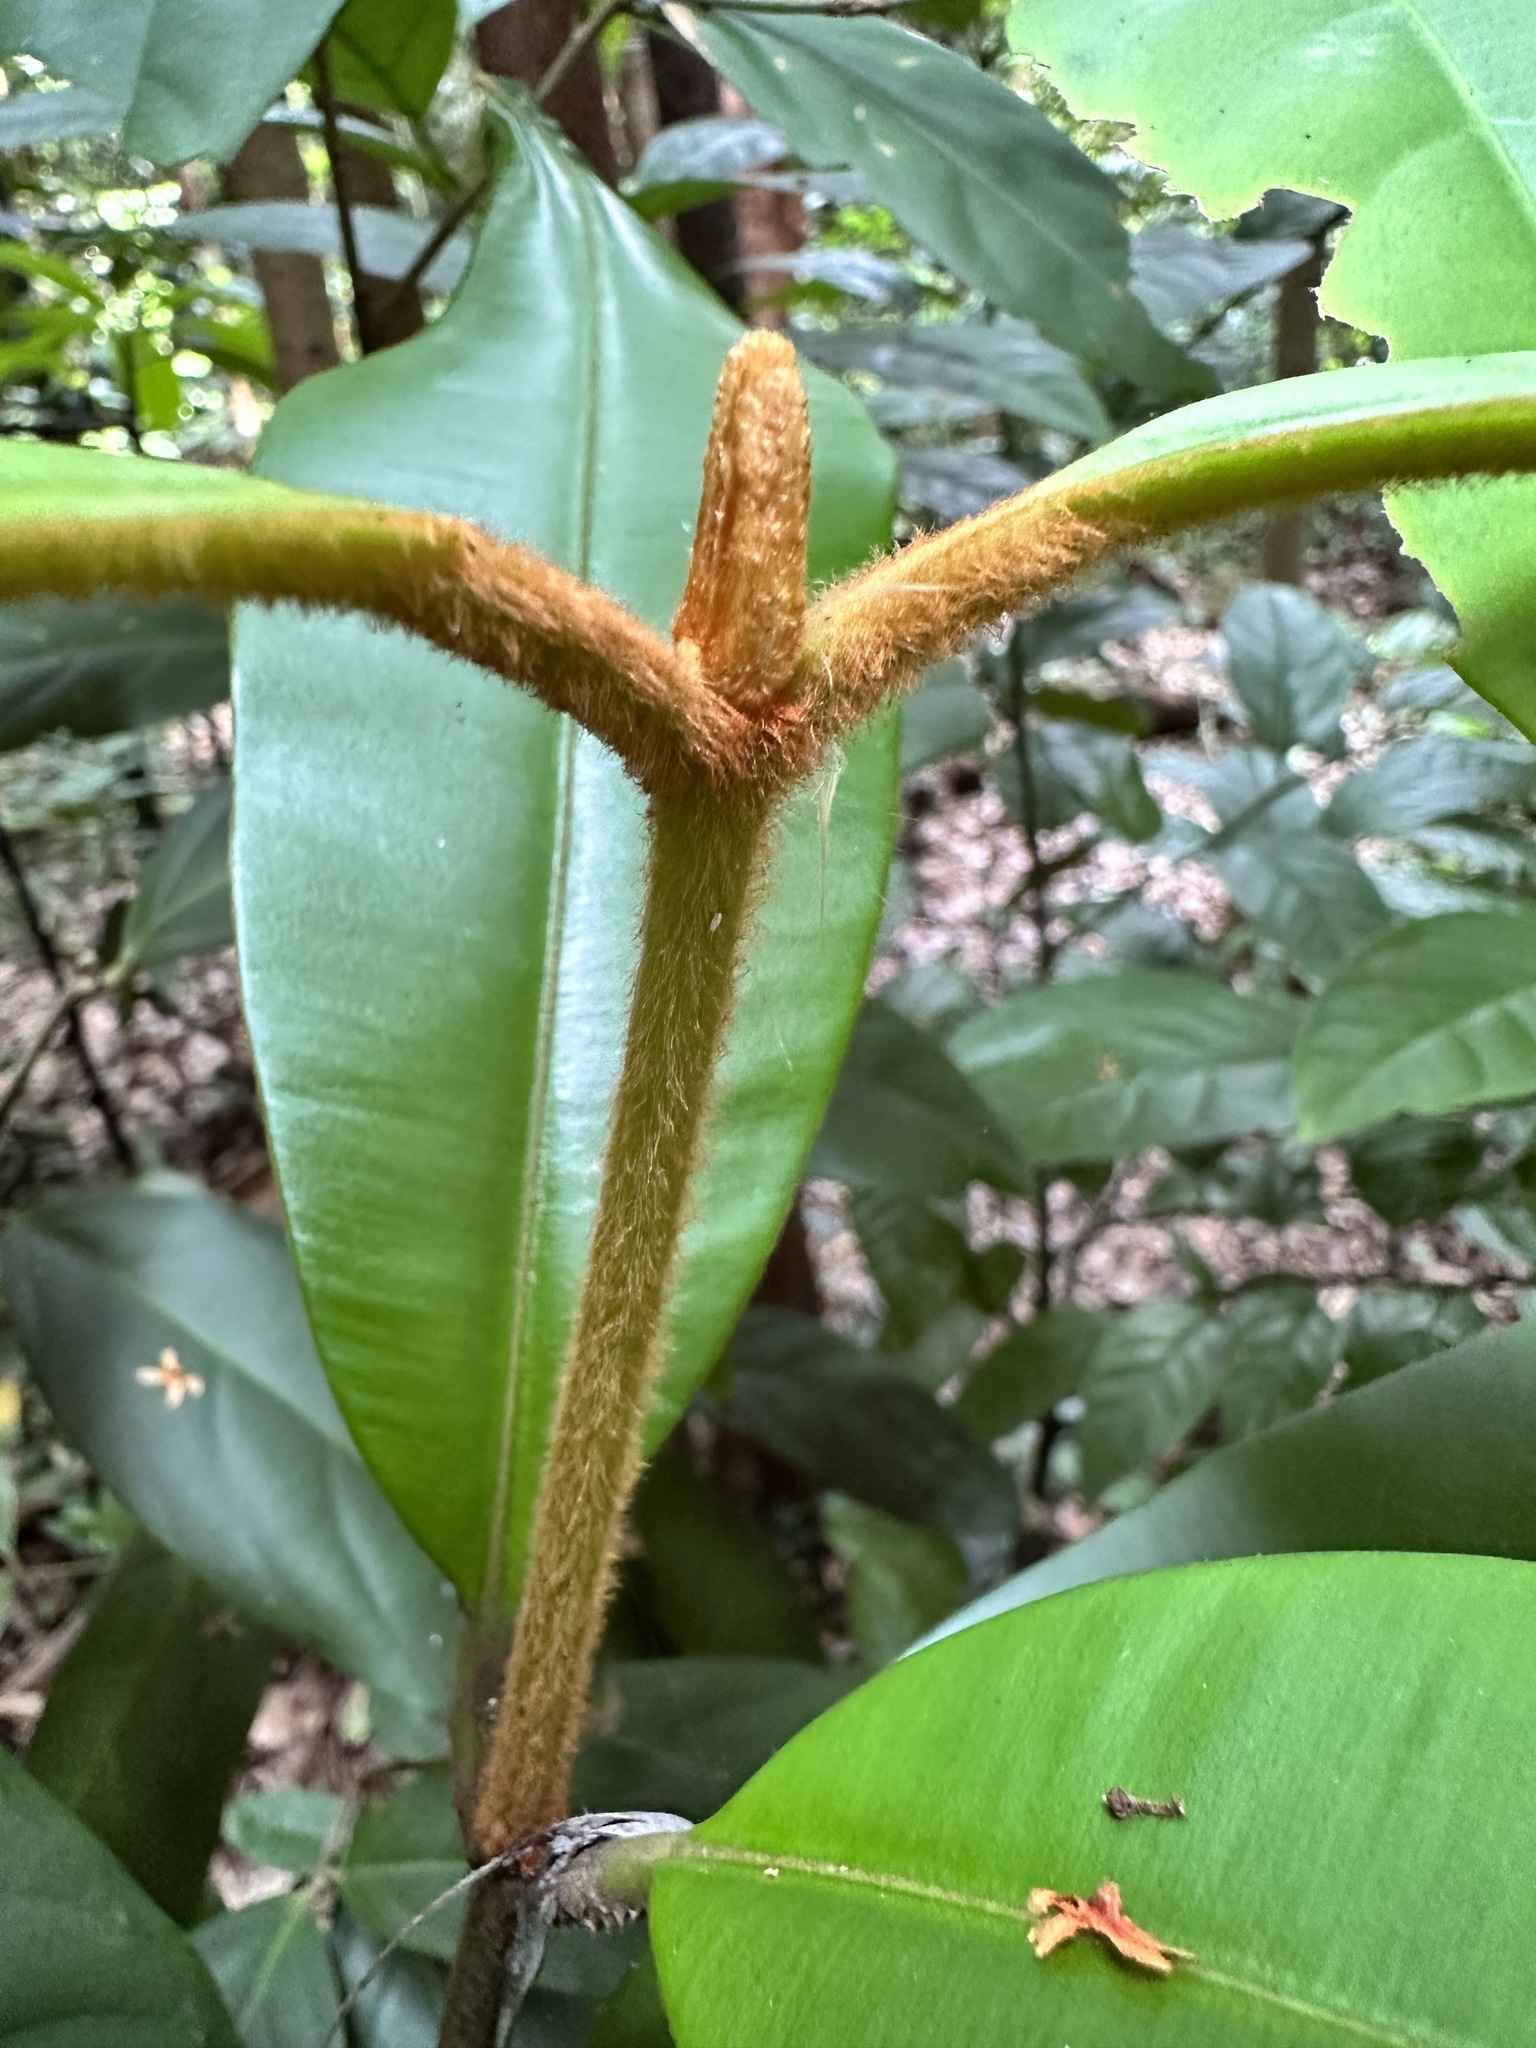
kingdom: Plantae
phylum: Tracheophyta
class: Magnoliopsida
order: Malpighiales
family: Calophyllaceae
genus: Calophyllum
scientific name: Calophyllum lanigerum
